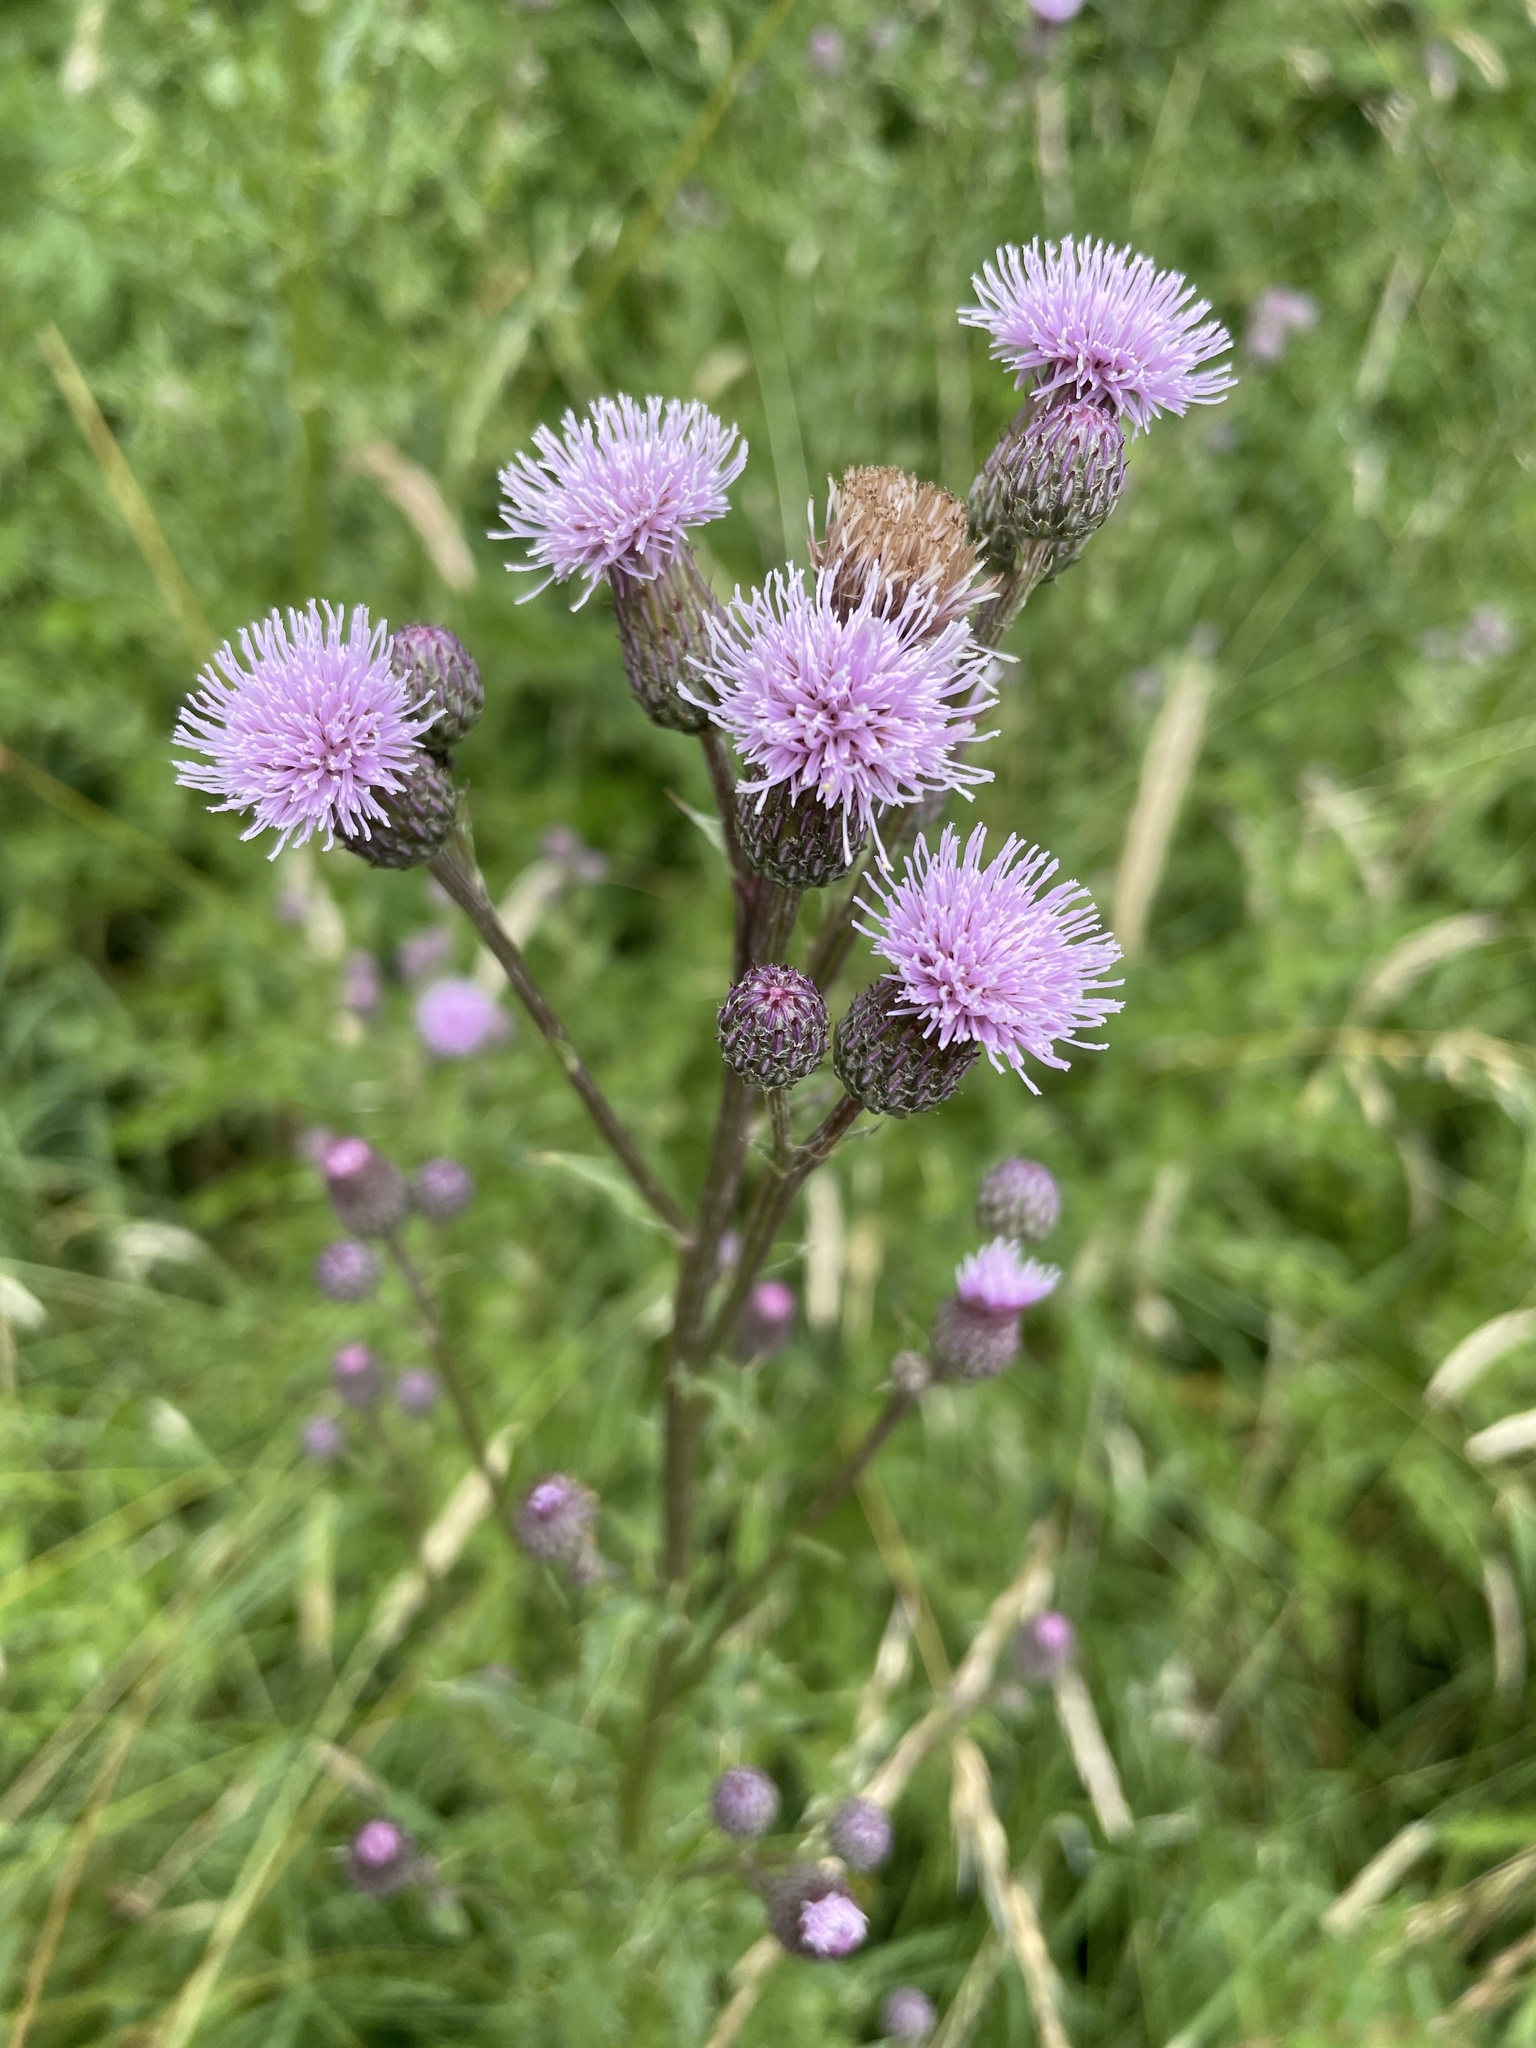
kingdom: Plantae
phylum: Tracheophyta
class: Magnoliopsida
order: Asterales
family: Asteraceae
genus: Cirsium
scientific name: Cirsium arvense
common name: Creeping thistle
